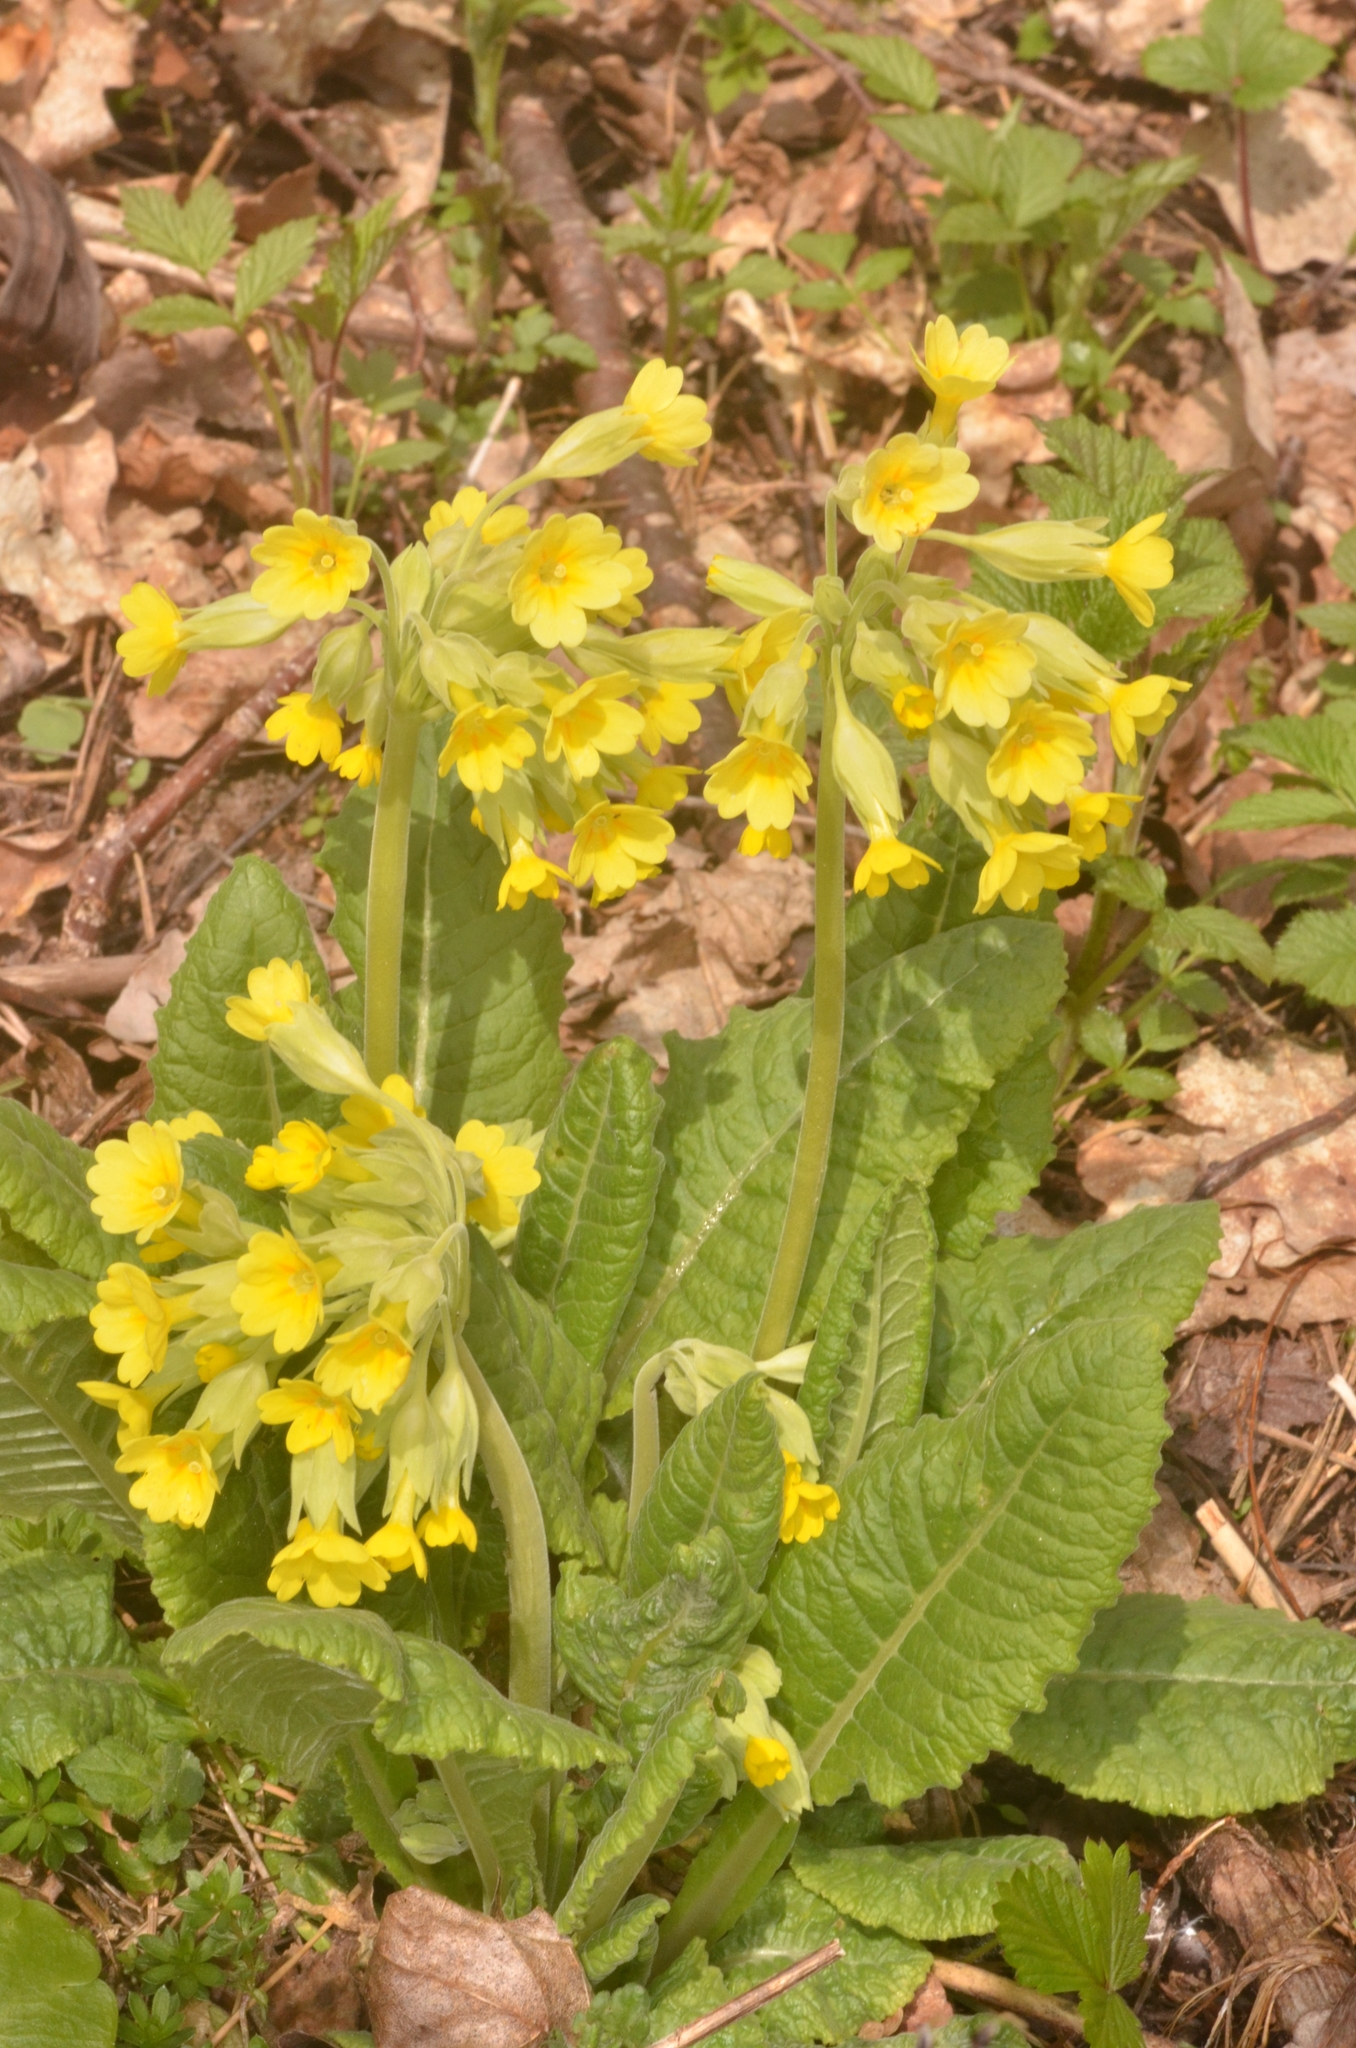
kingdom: Plantae
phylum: Tracheophyta
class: Magnoliopsida
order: Ericales
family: Primulaceae
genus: Primula
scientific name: Primula veris
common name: Cowslip
